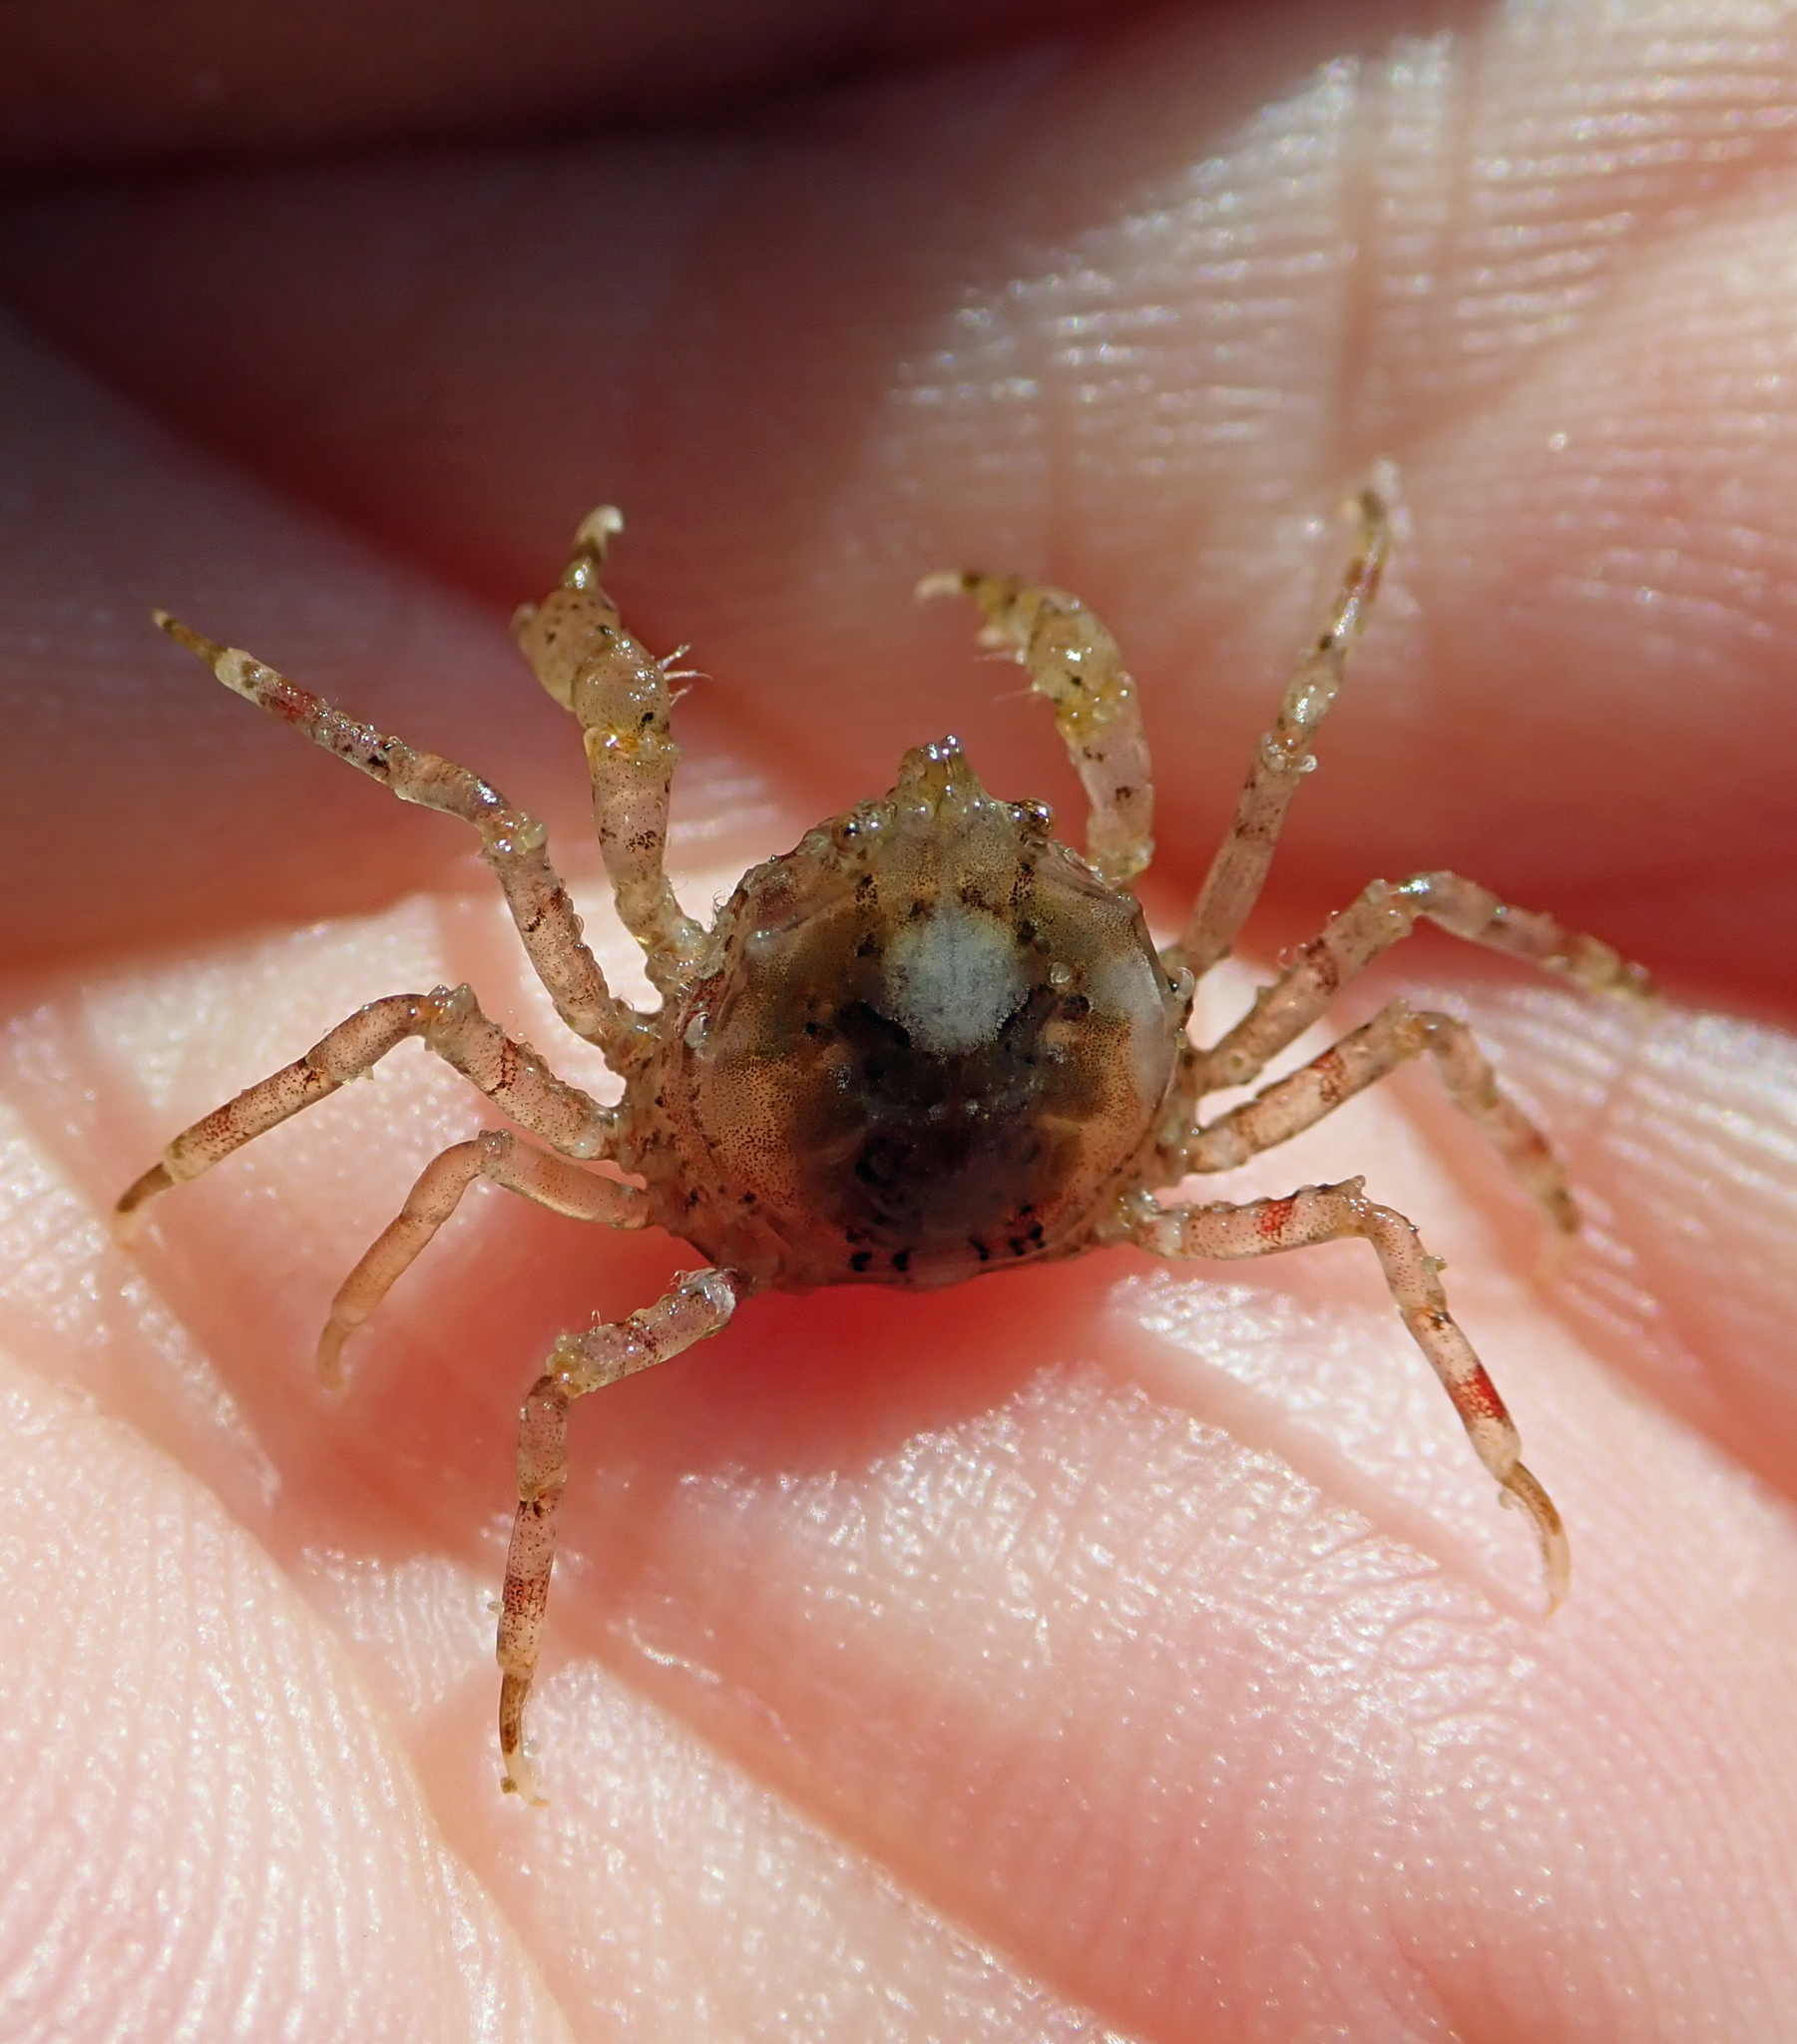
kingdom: Animalia
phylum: Arthropoda
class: Malacostraca
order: Decapoda
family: Hymenosomatidae
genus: Halicarcinus
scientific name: Halicarcinus cookii
